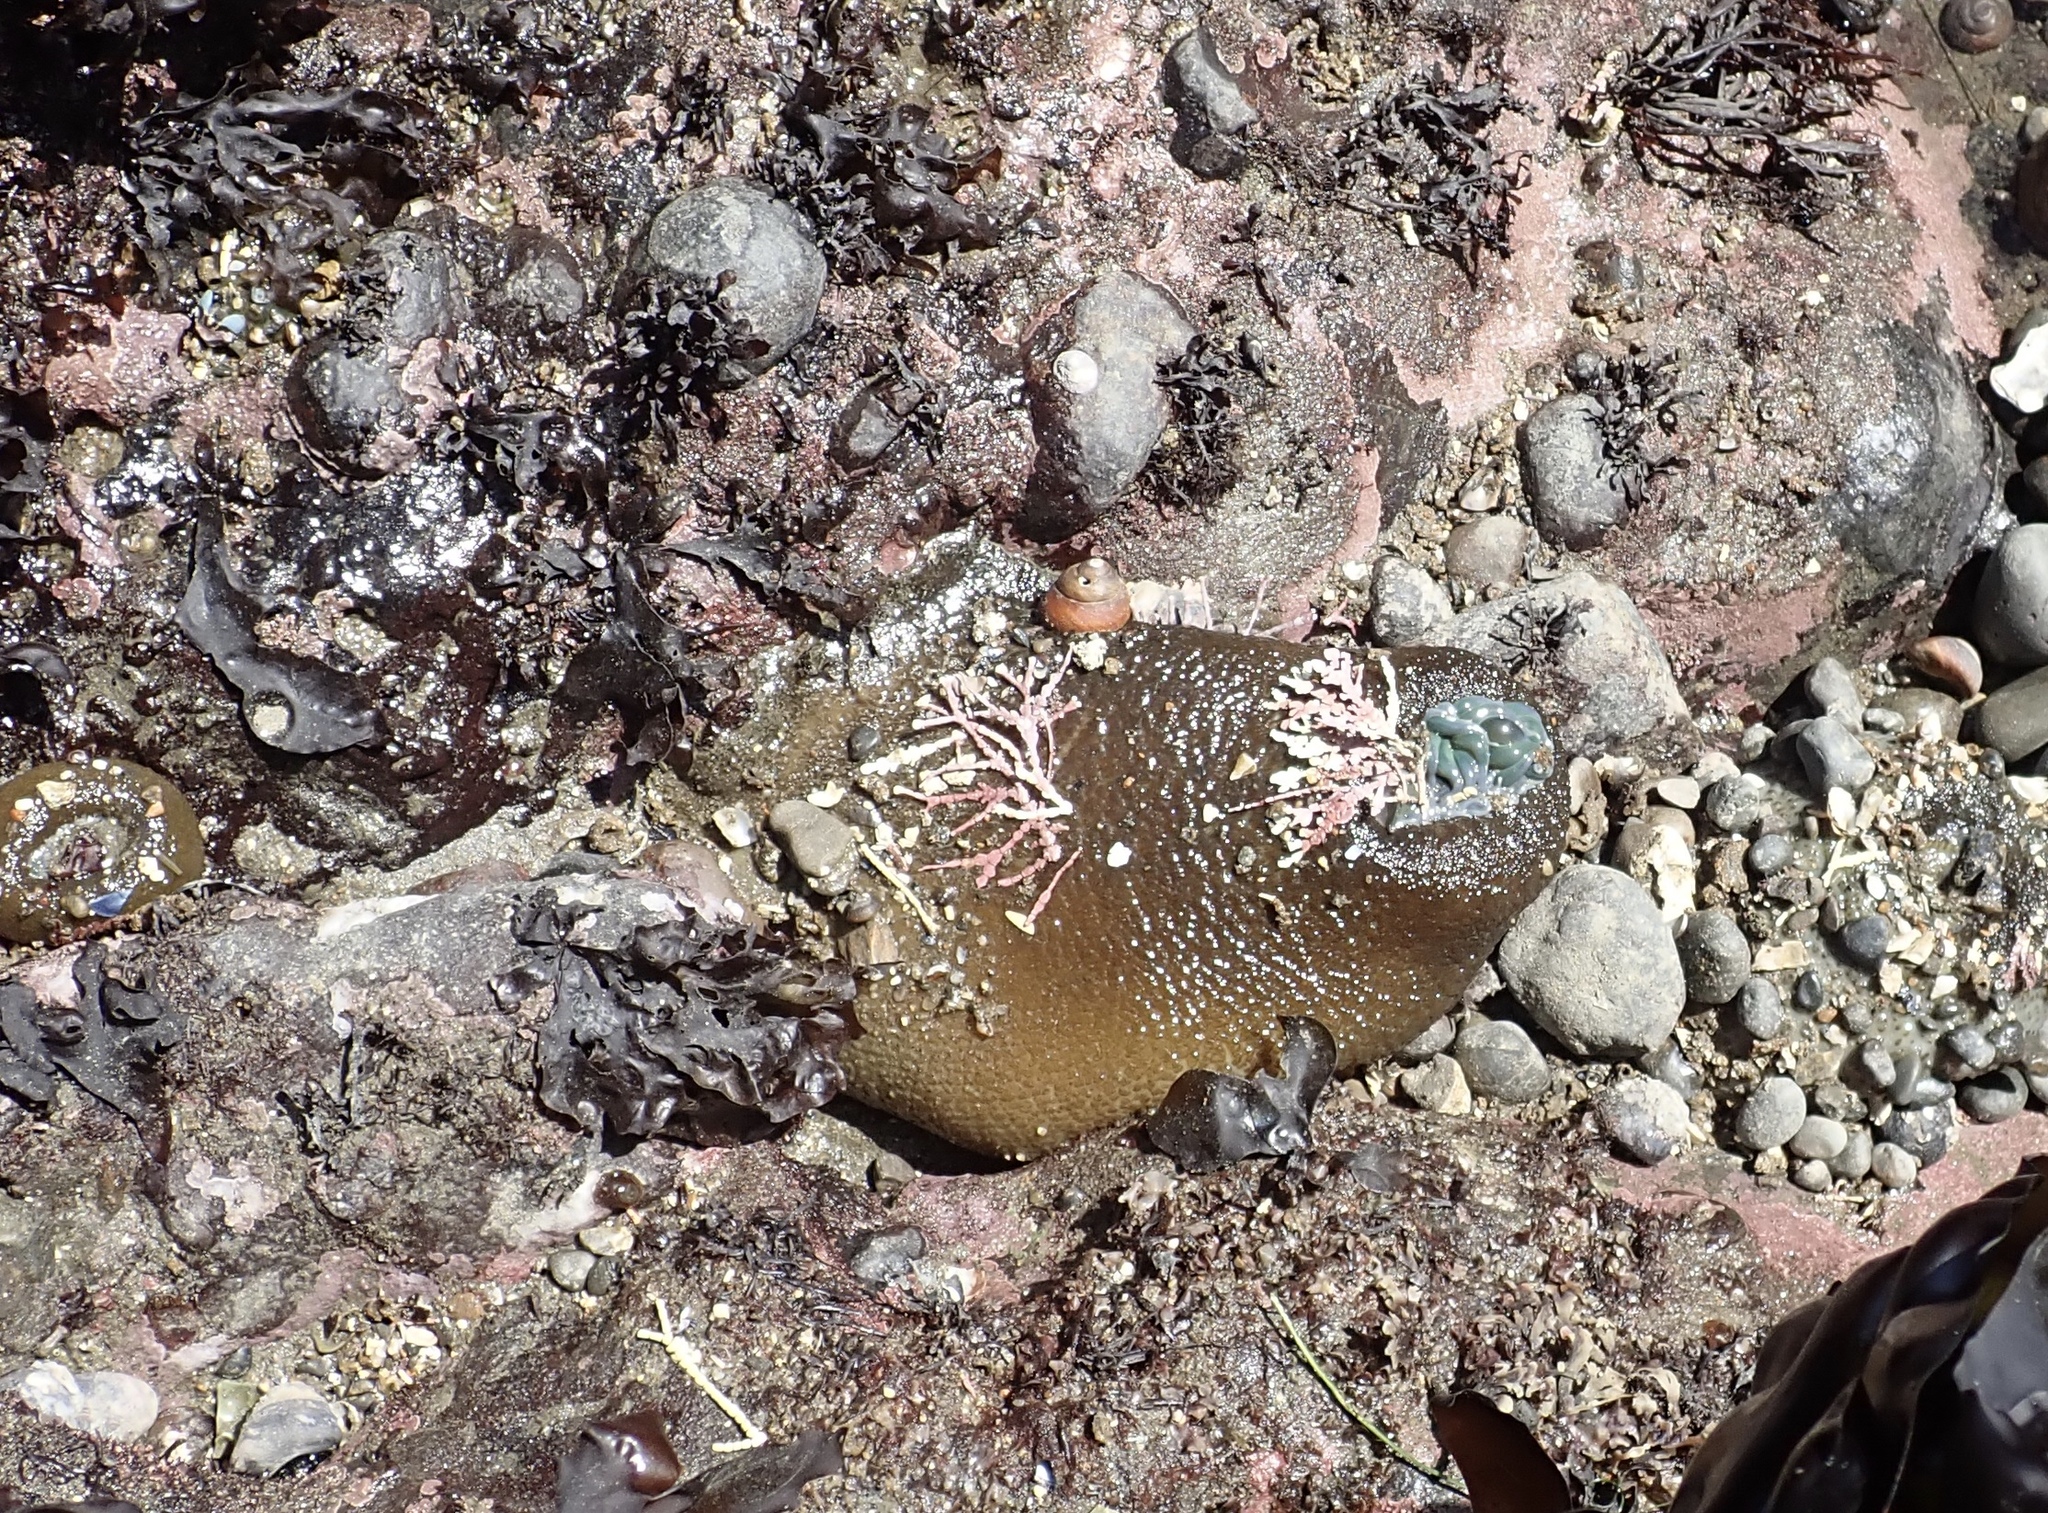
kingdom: Animalia
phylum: Cnidaria
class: Anthozoa
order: Actiniaria
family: Actiniidae
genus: Anthopleura
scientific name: Anthopleura xanthogrammica
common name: Giant green anemone
